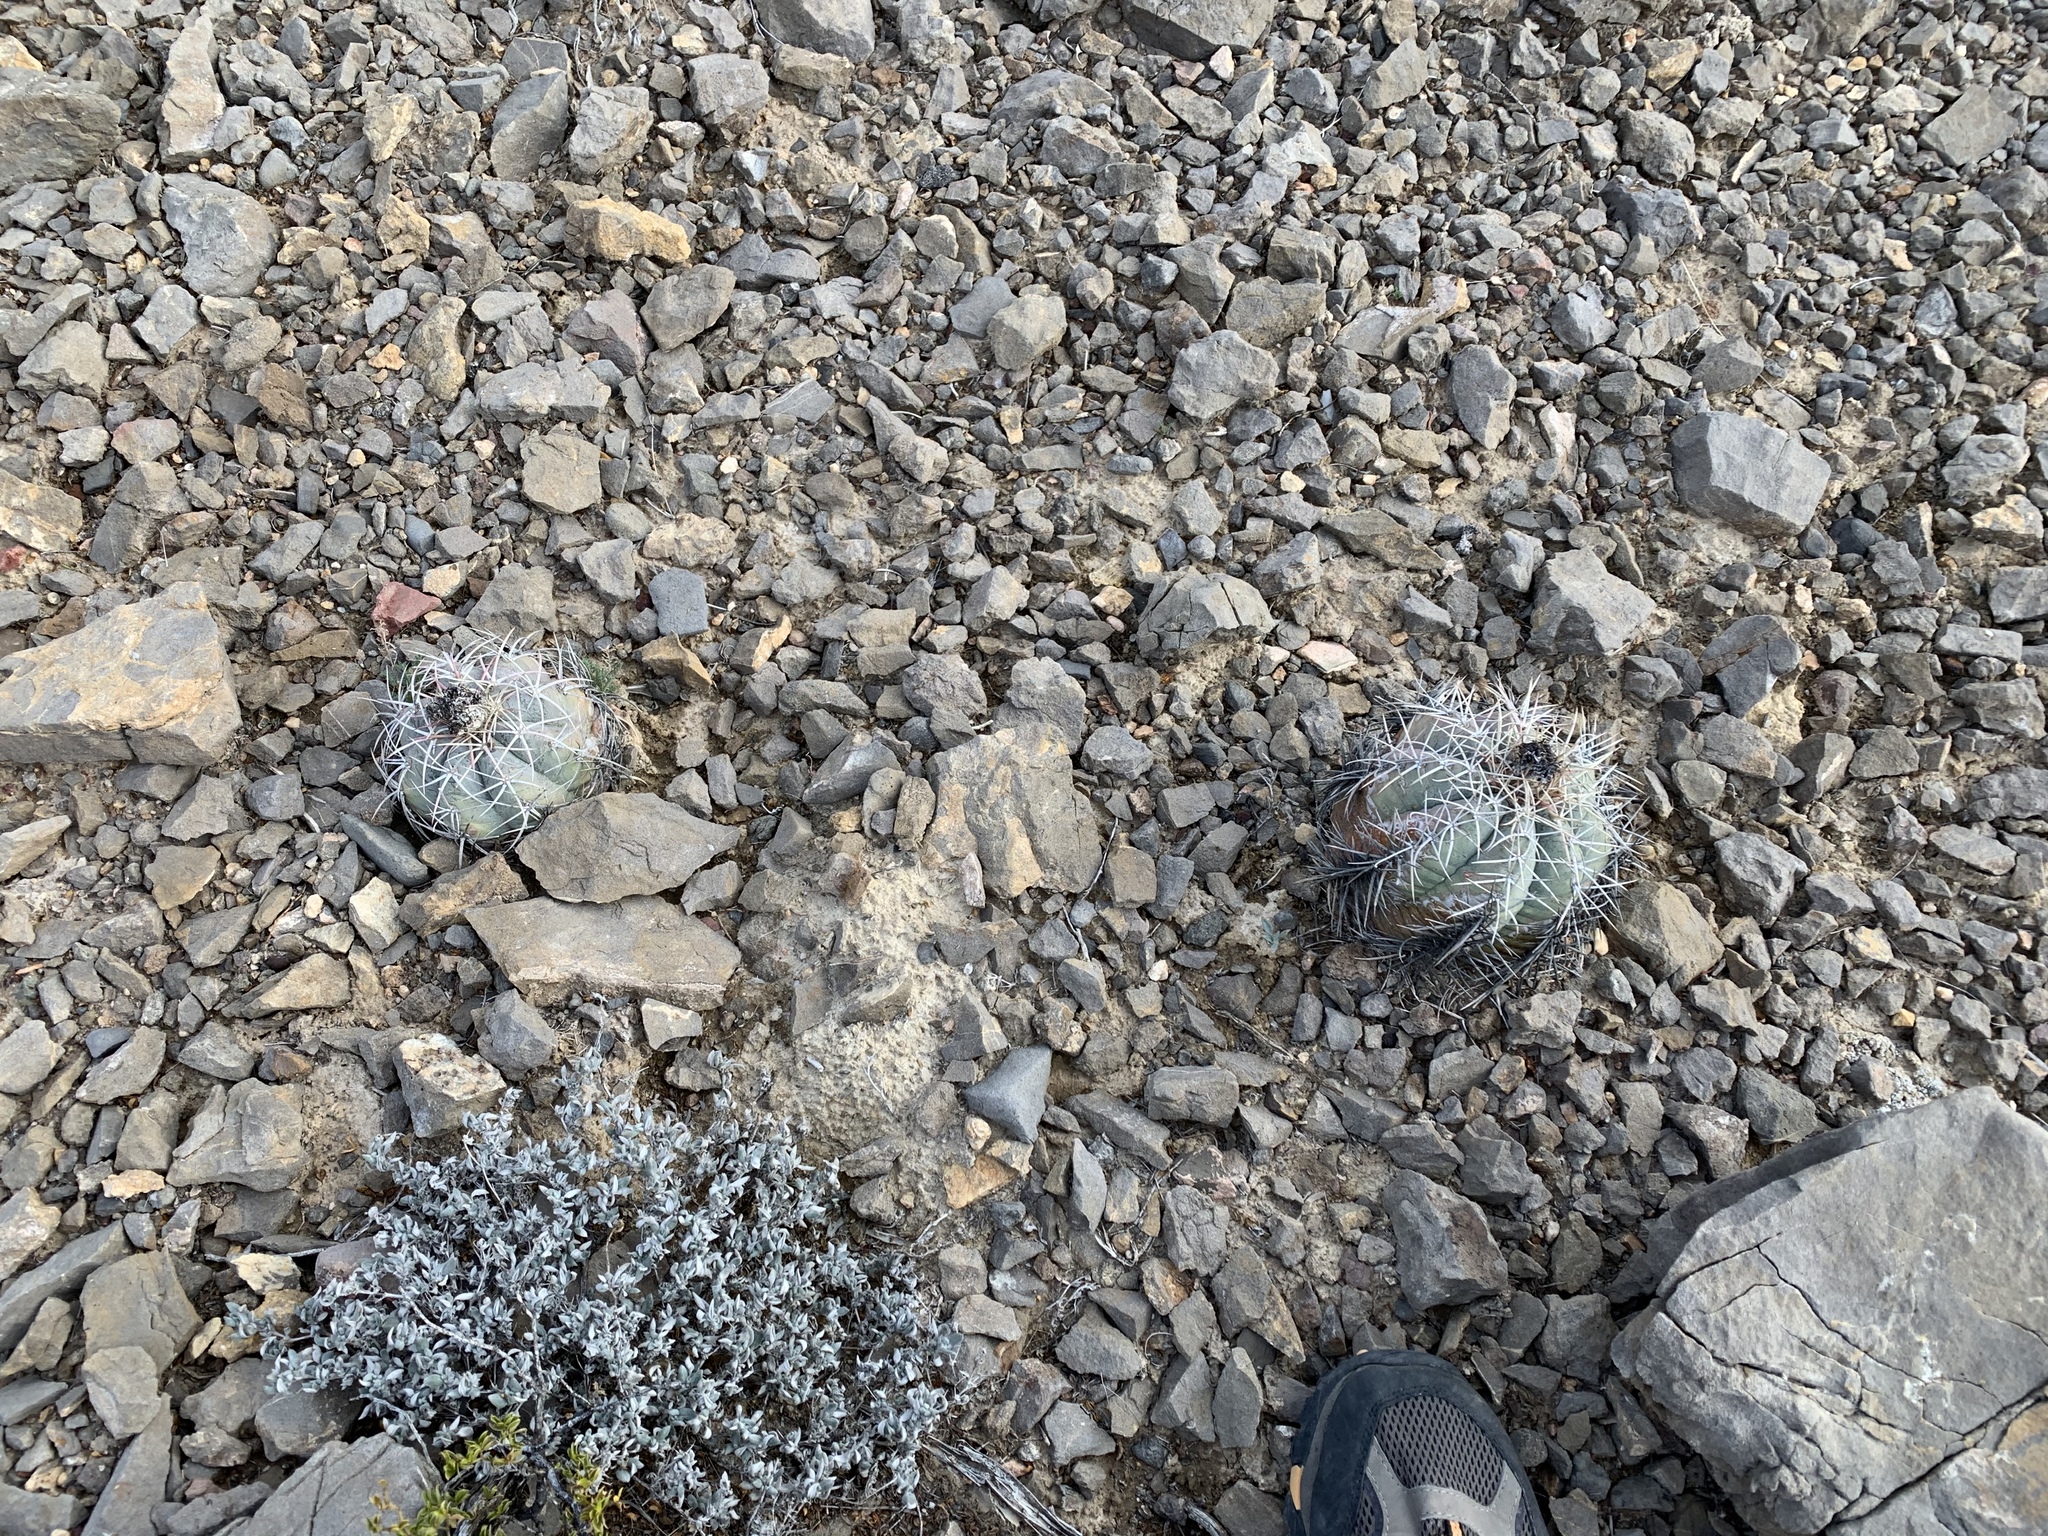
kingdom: Plantae
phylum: Tracheophyta
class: Magnoliopsida
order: Caryophyllales
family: Cactaceae
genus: Echinocactus
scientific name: Echinocactus horizonthalonius
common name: Devilshead
